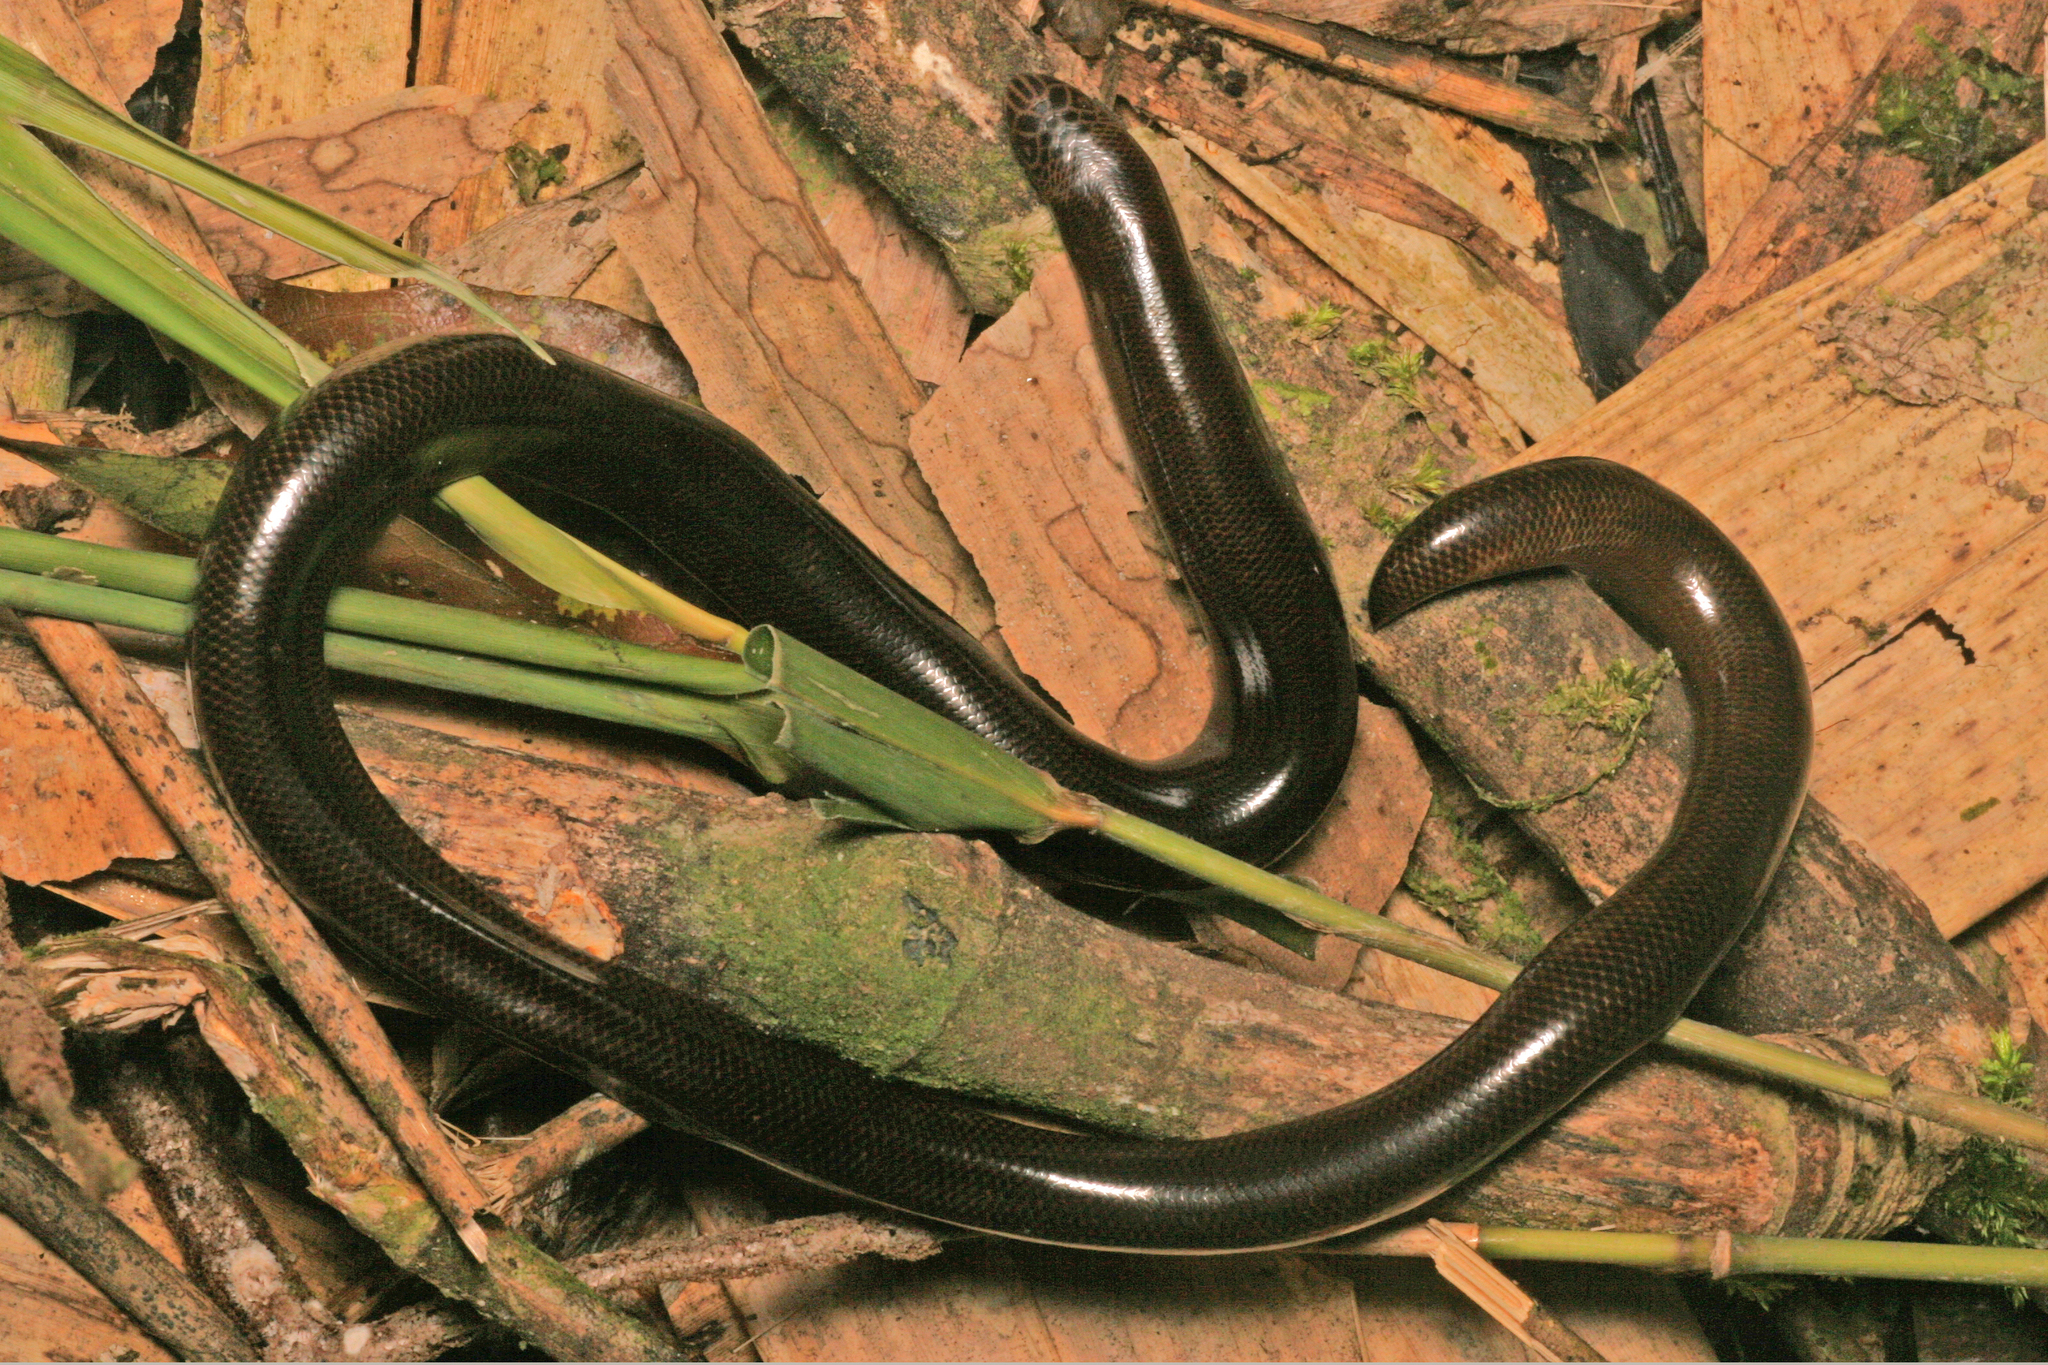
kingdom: Animalia
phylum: Chordata
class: Squamata
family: Typhlopidae
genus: Acutotyphlops
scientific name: Acutotyphlops solomonis
